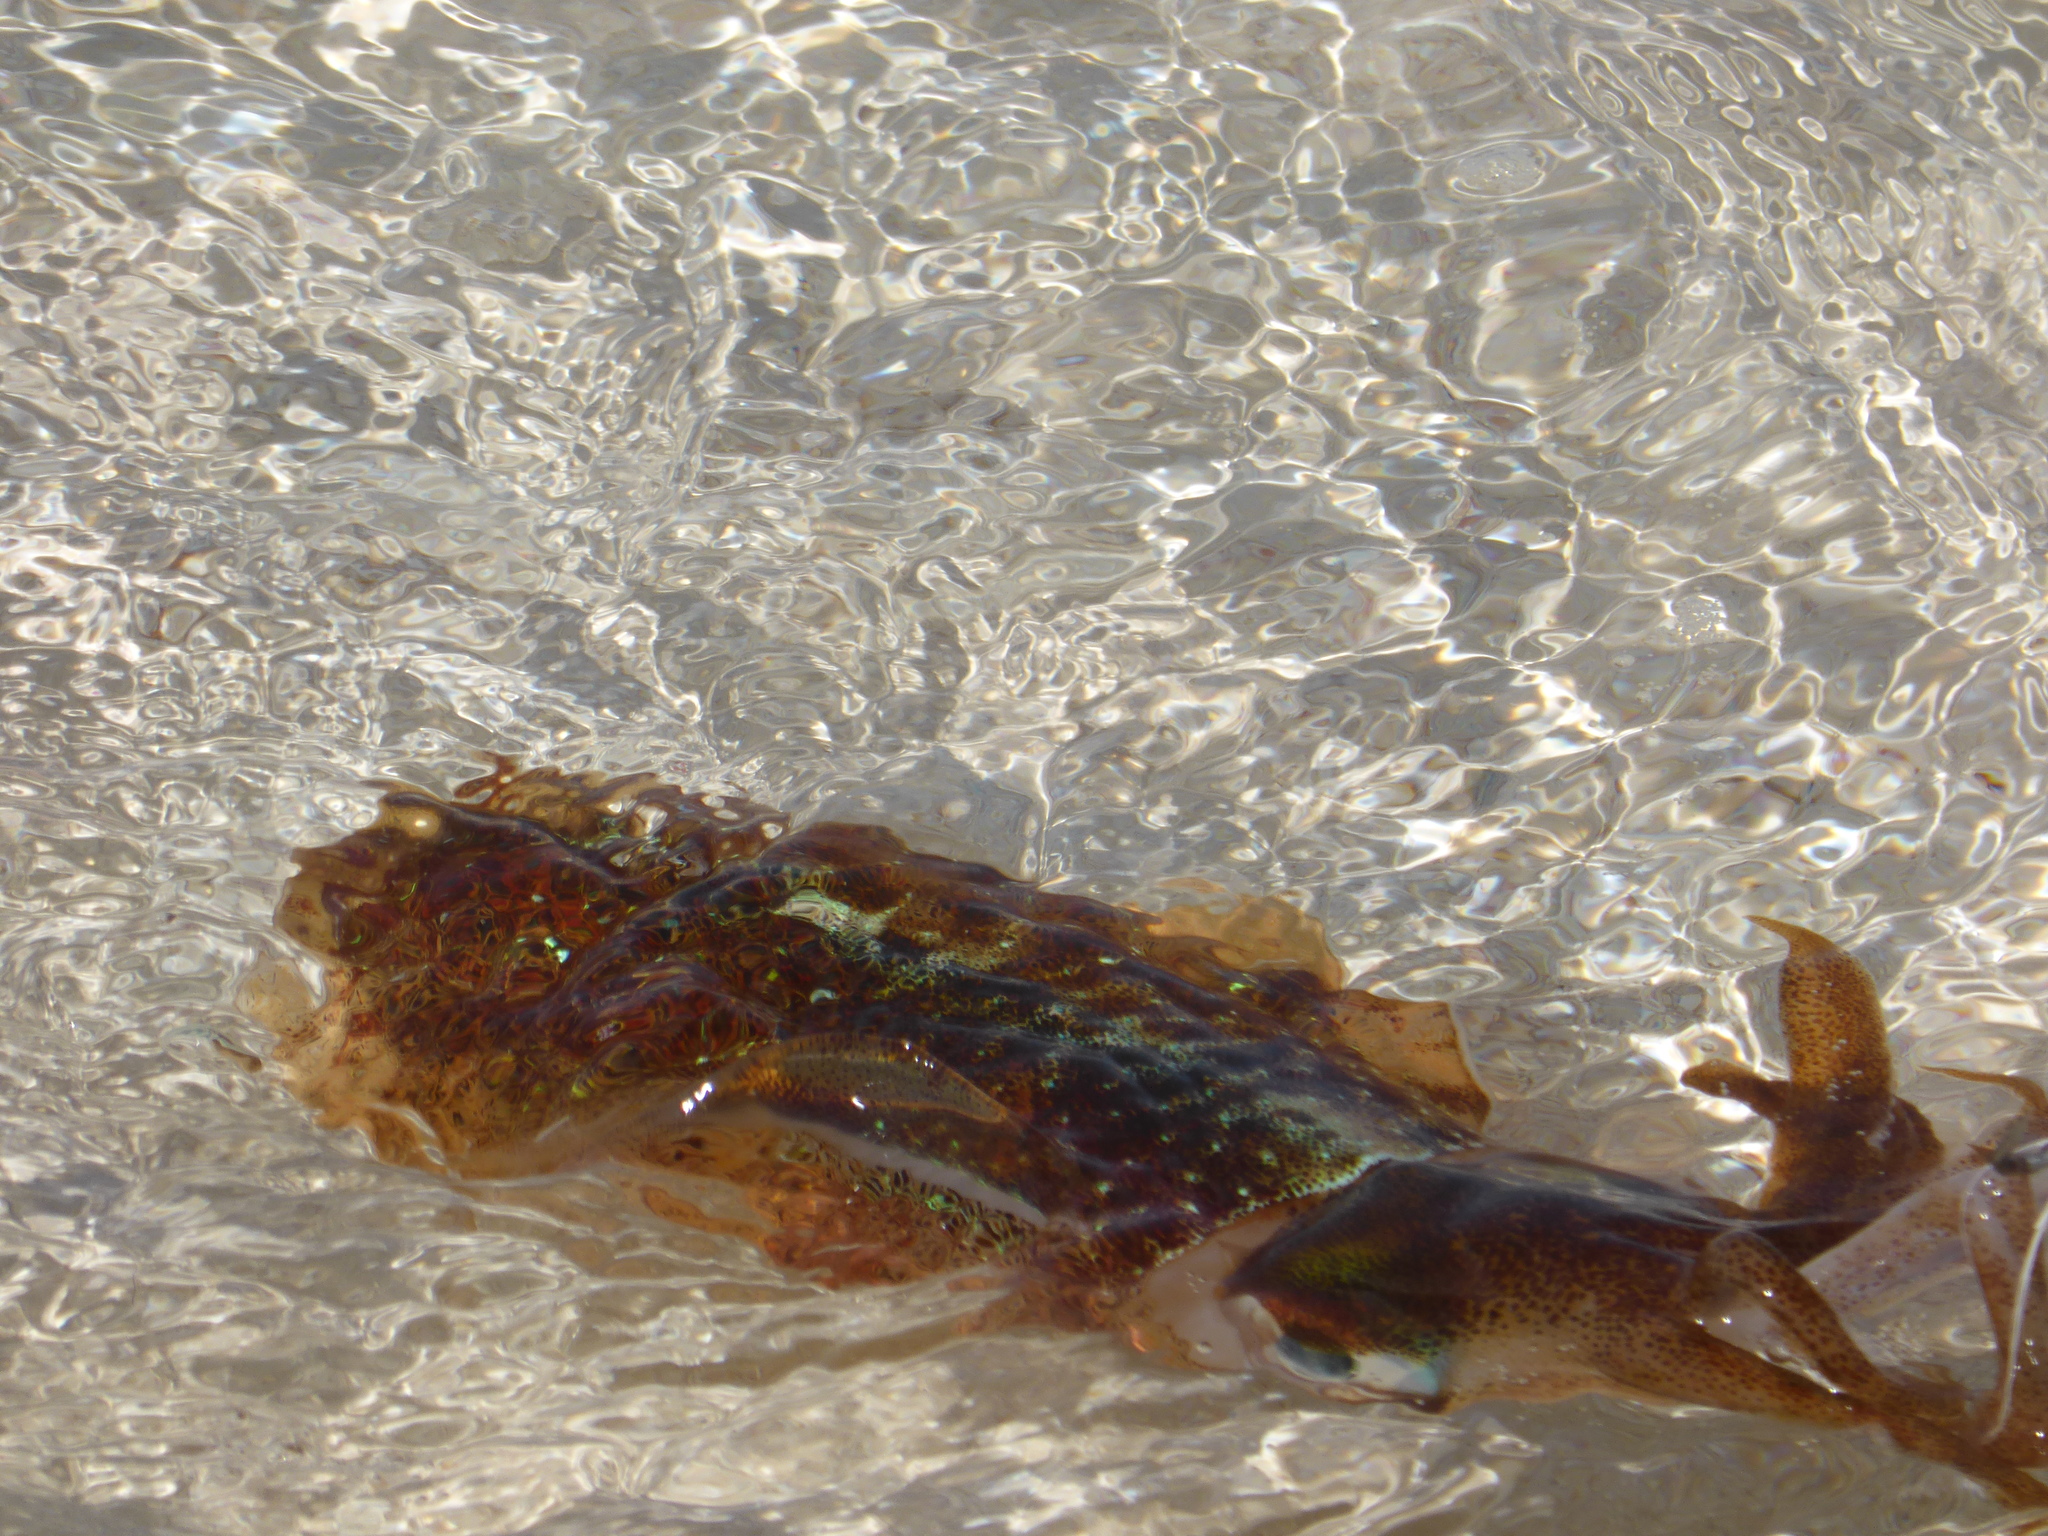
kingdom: Animalia
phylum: Mollusca
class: Cephalopoda
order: Myopsida
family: Loliginidae
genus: Sepioteuthis
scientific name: Sepioteuthis sepioidea
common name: Caribbean reef squid
